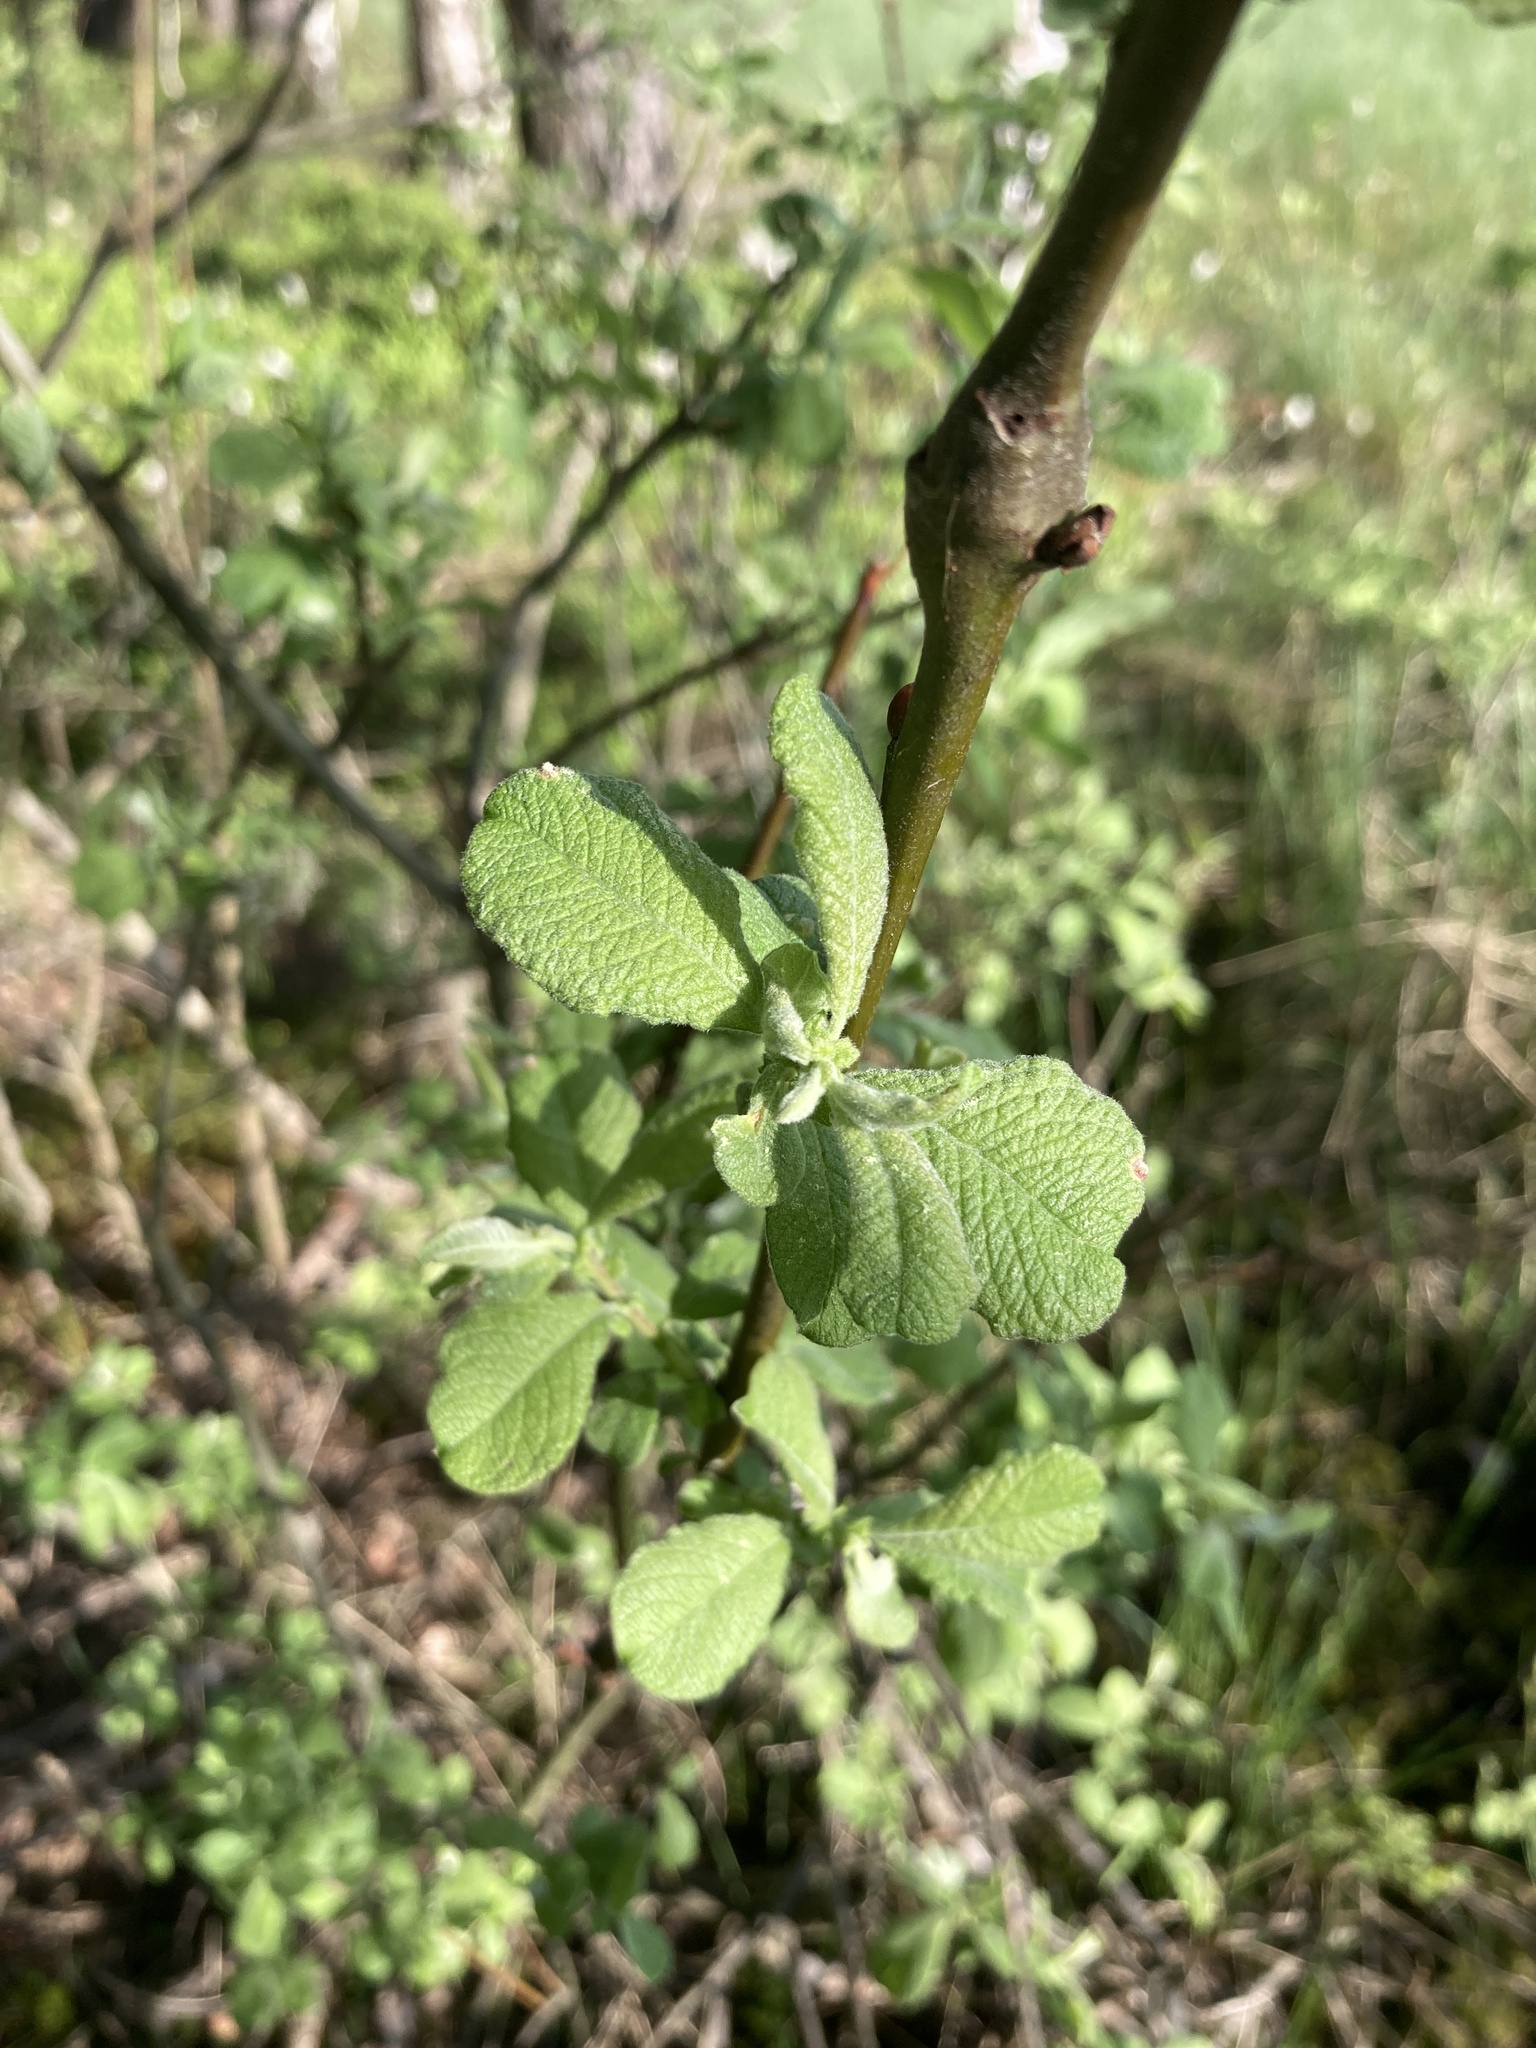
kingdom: Plantae
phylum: Tracheophyta
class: Magnoliopsida
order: Malpighiales
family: Salicaceae
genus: Salix
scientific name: Salix aurita
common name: Eared willow
